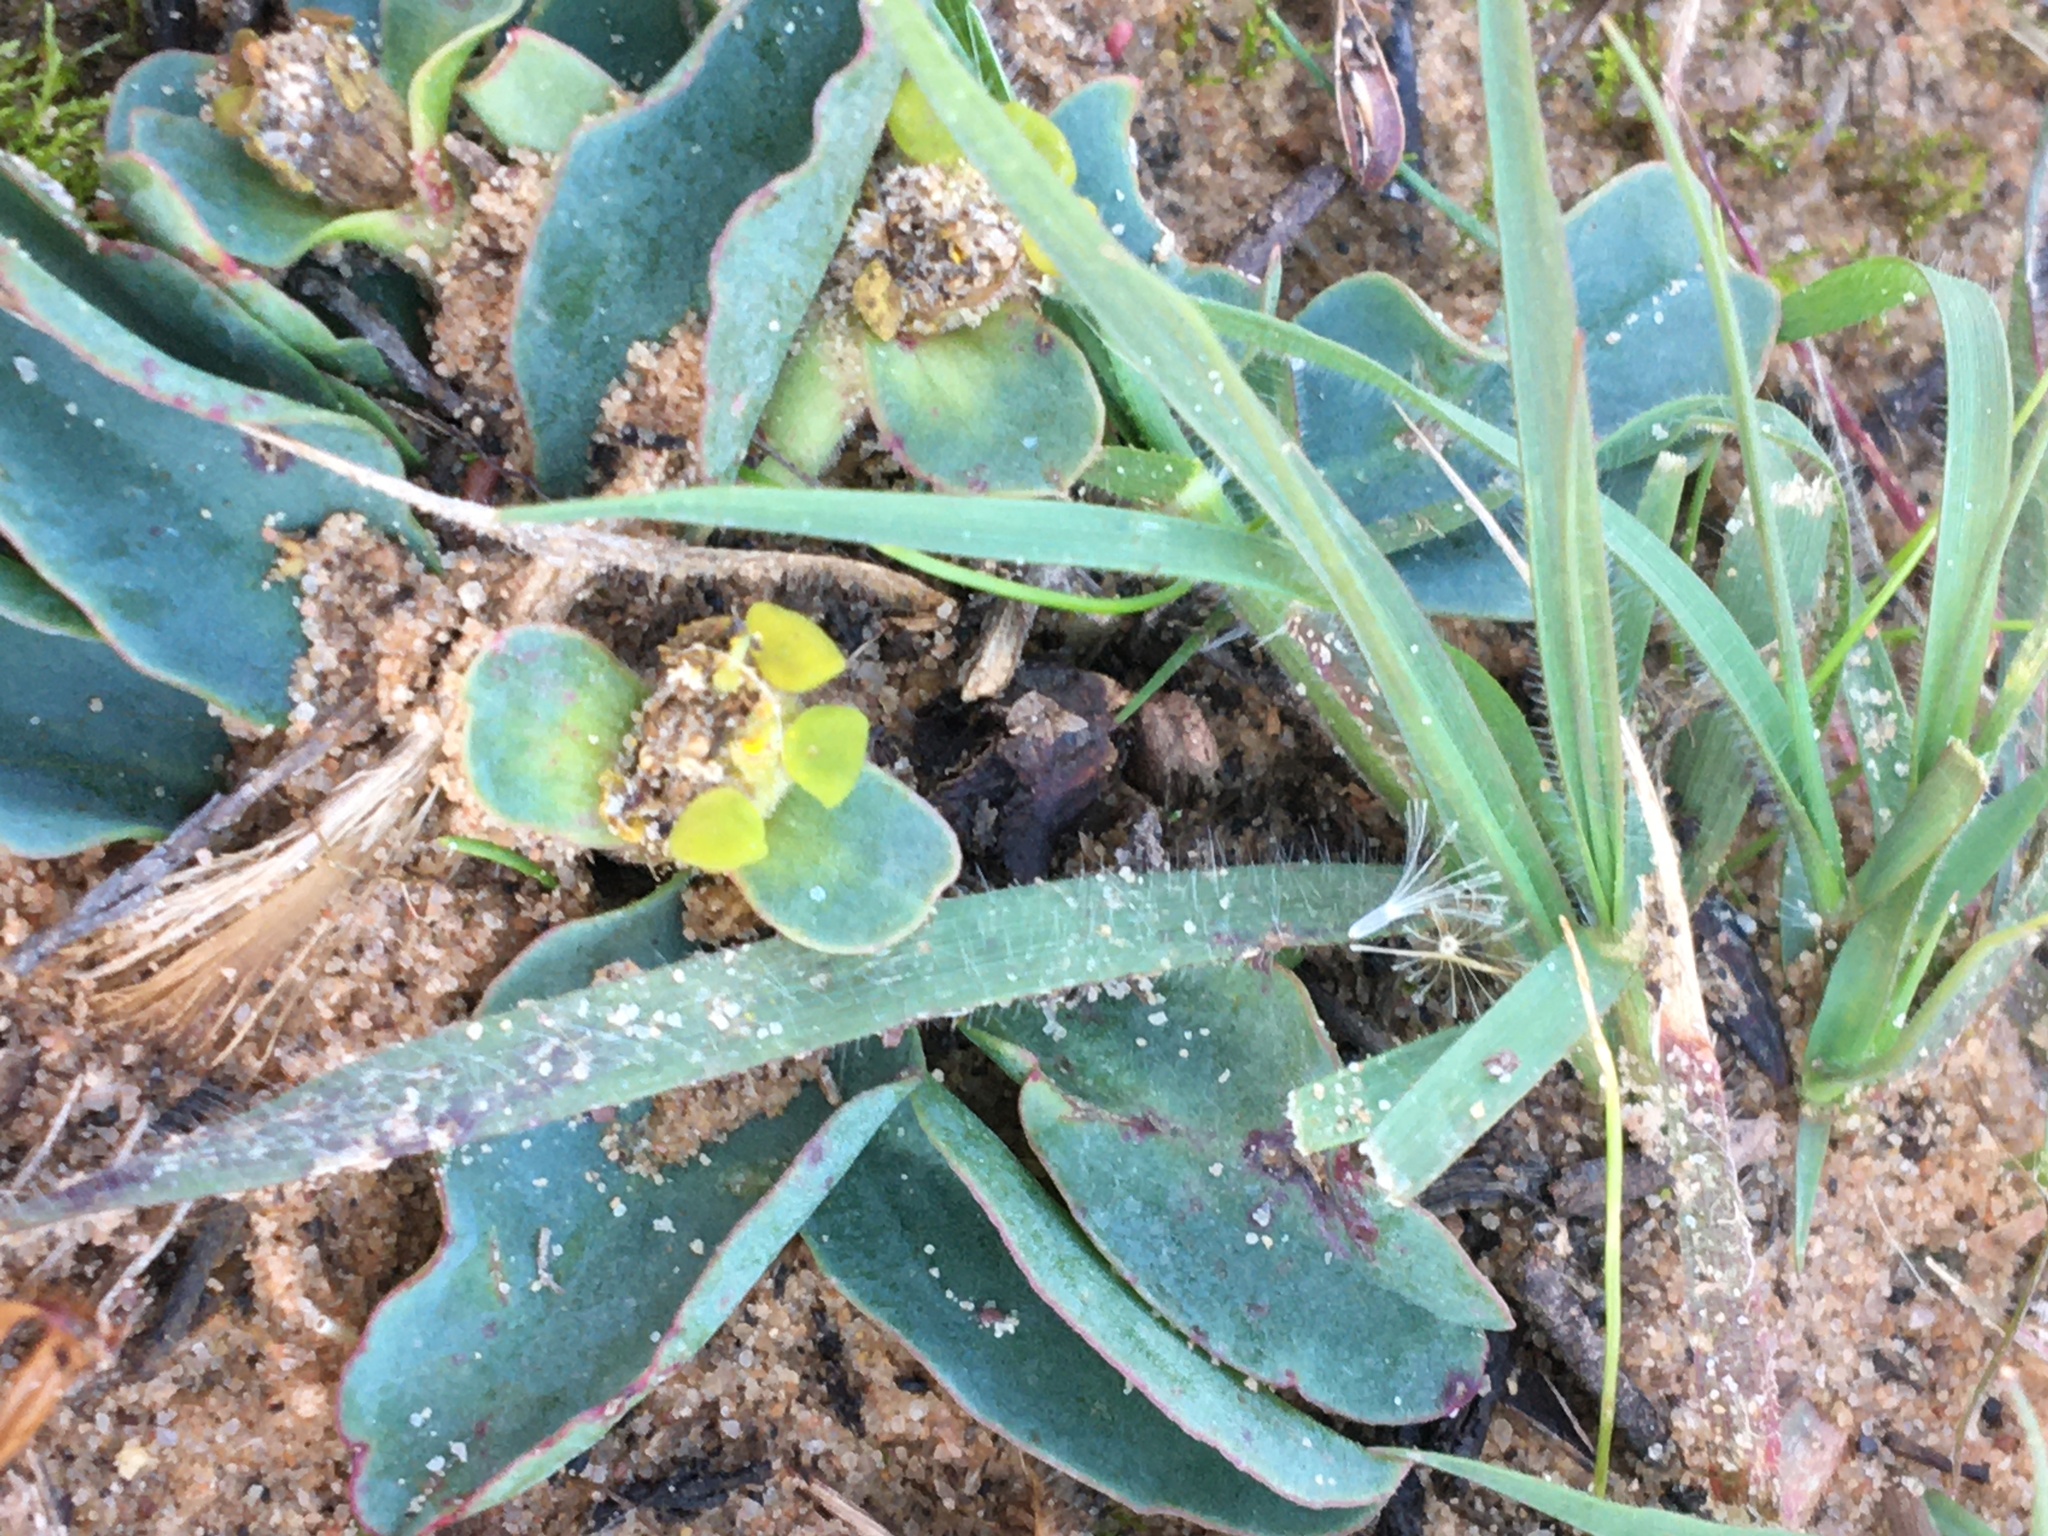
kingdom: Plantae
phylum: Tracheophyta
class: Magnoliopsida
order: Malpighiales
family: Euphorbiaceae
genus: Euphorbia
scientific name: Euphorbia tuberosa
